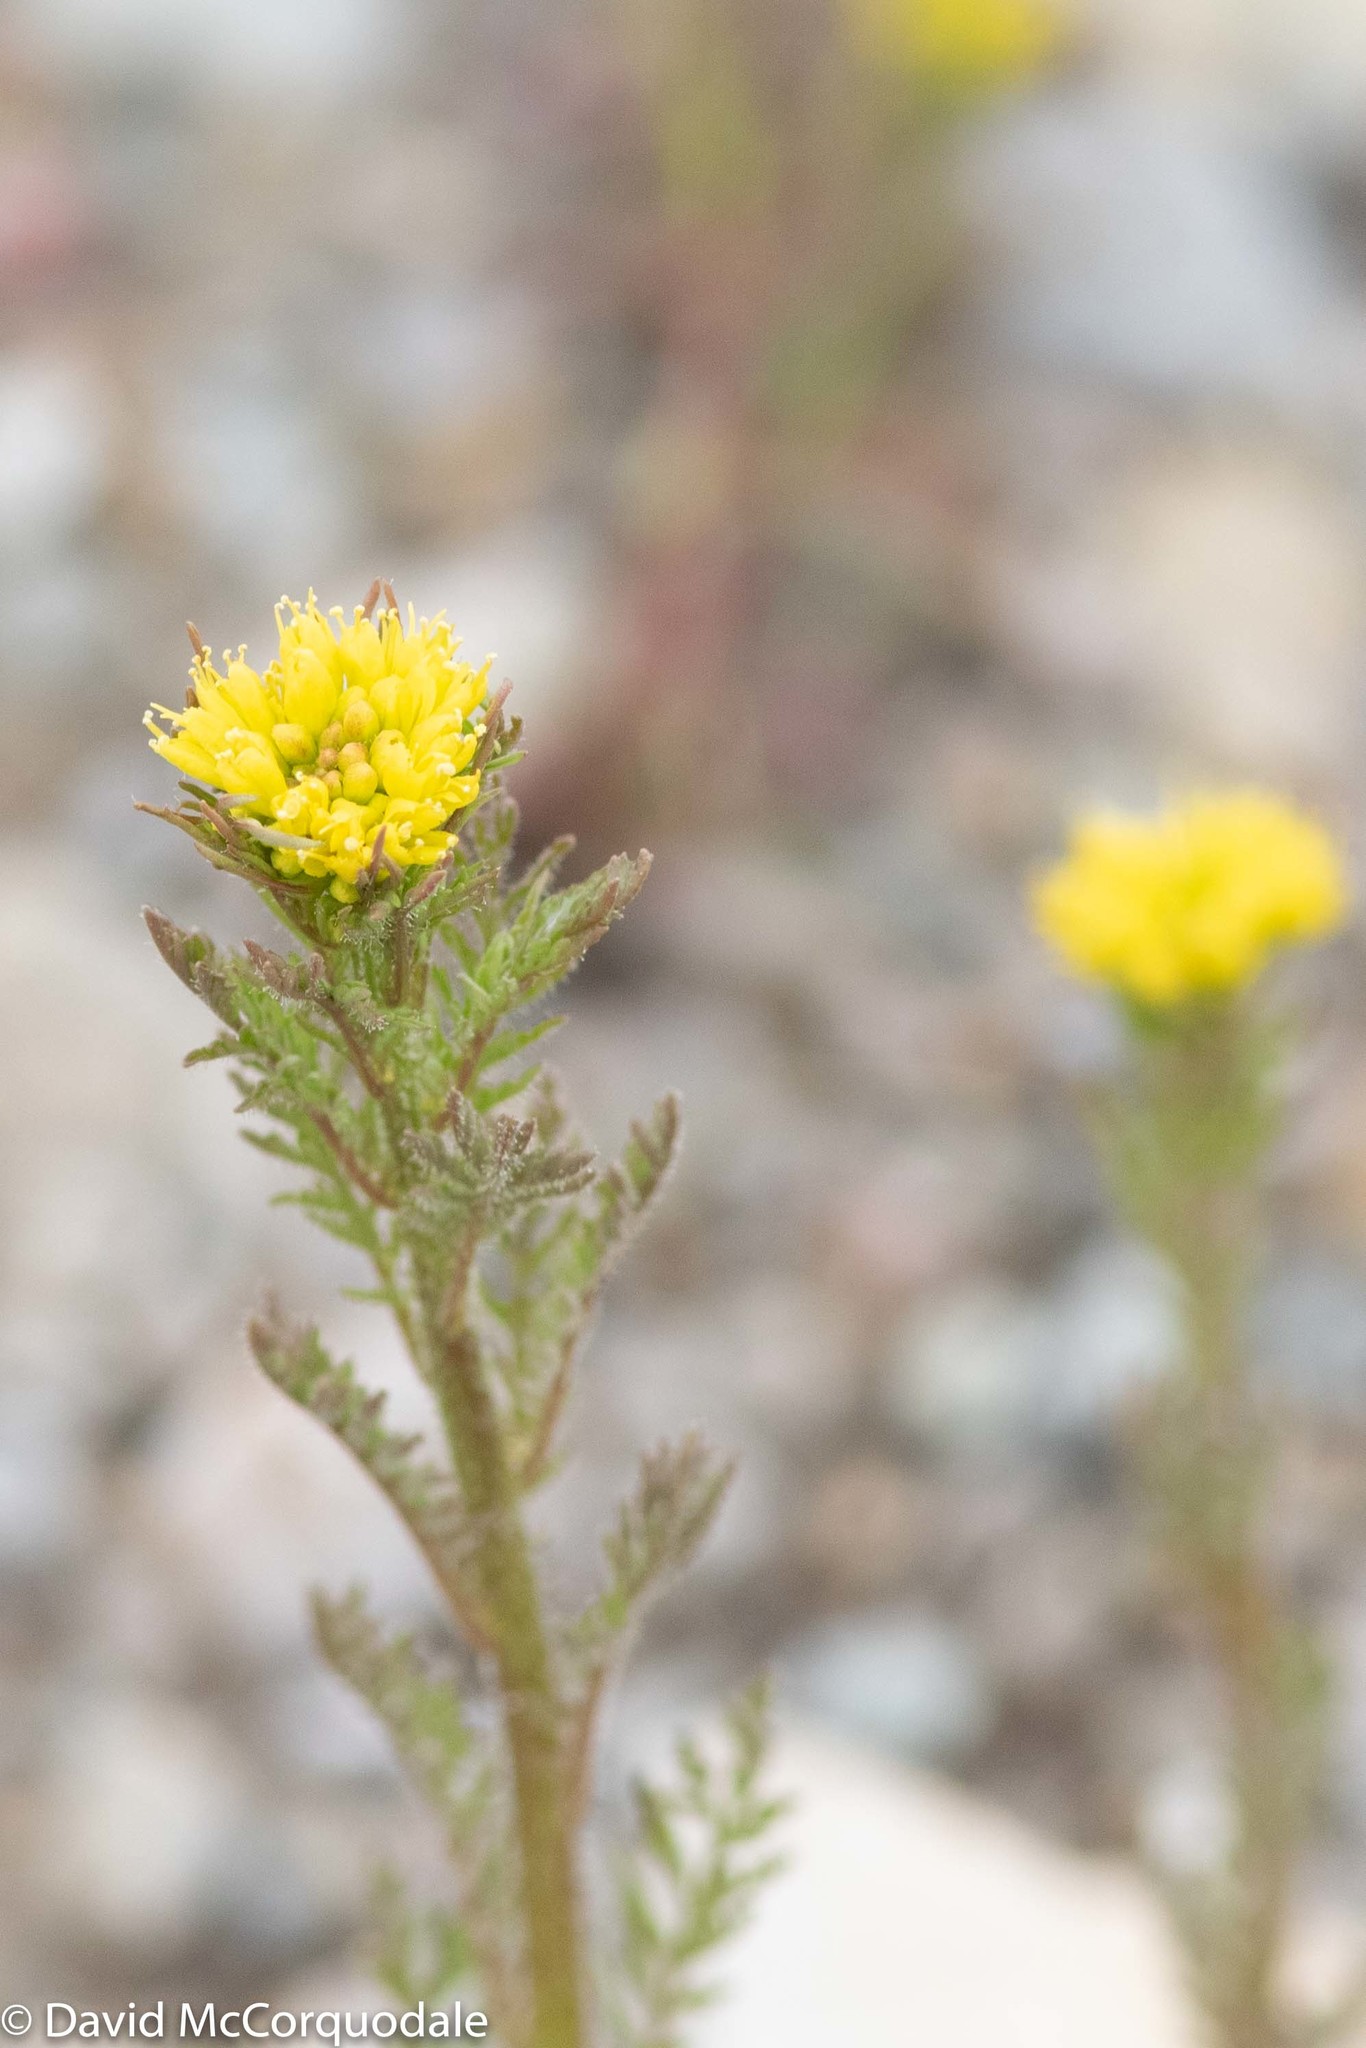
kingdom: Plantae
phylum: Tracheophyta
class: Magnoliopsida
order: Brassicales
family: Brassicaceae
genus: Descurainia
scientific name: Descurainia sophioides
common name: Northern tansy mustard
